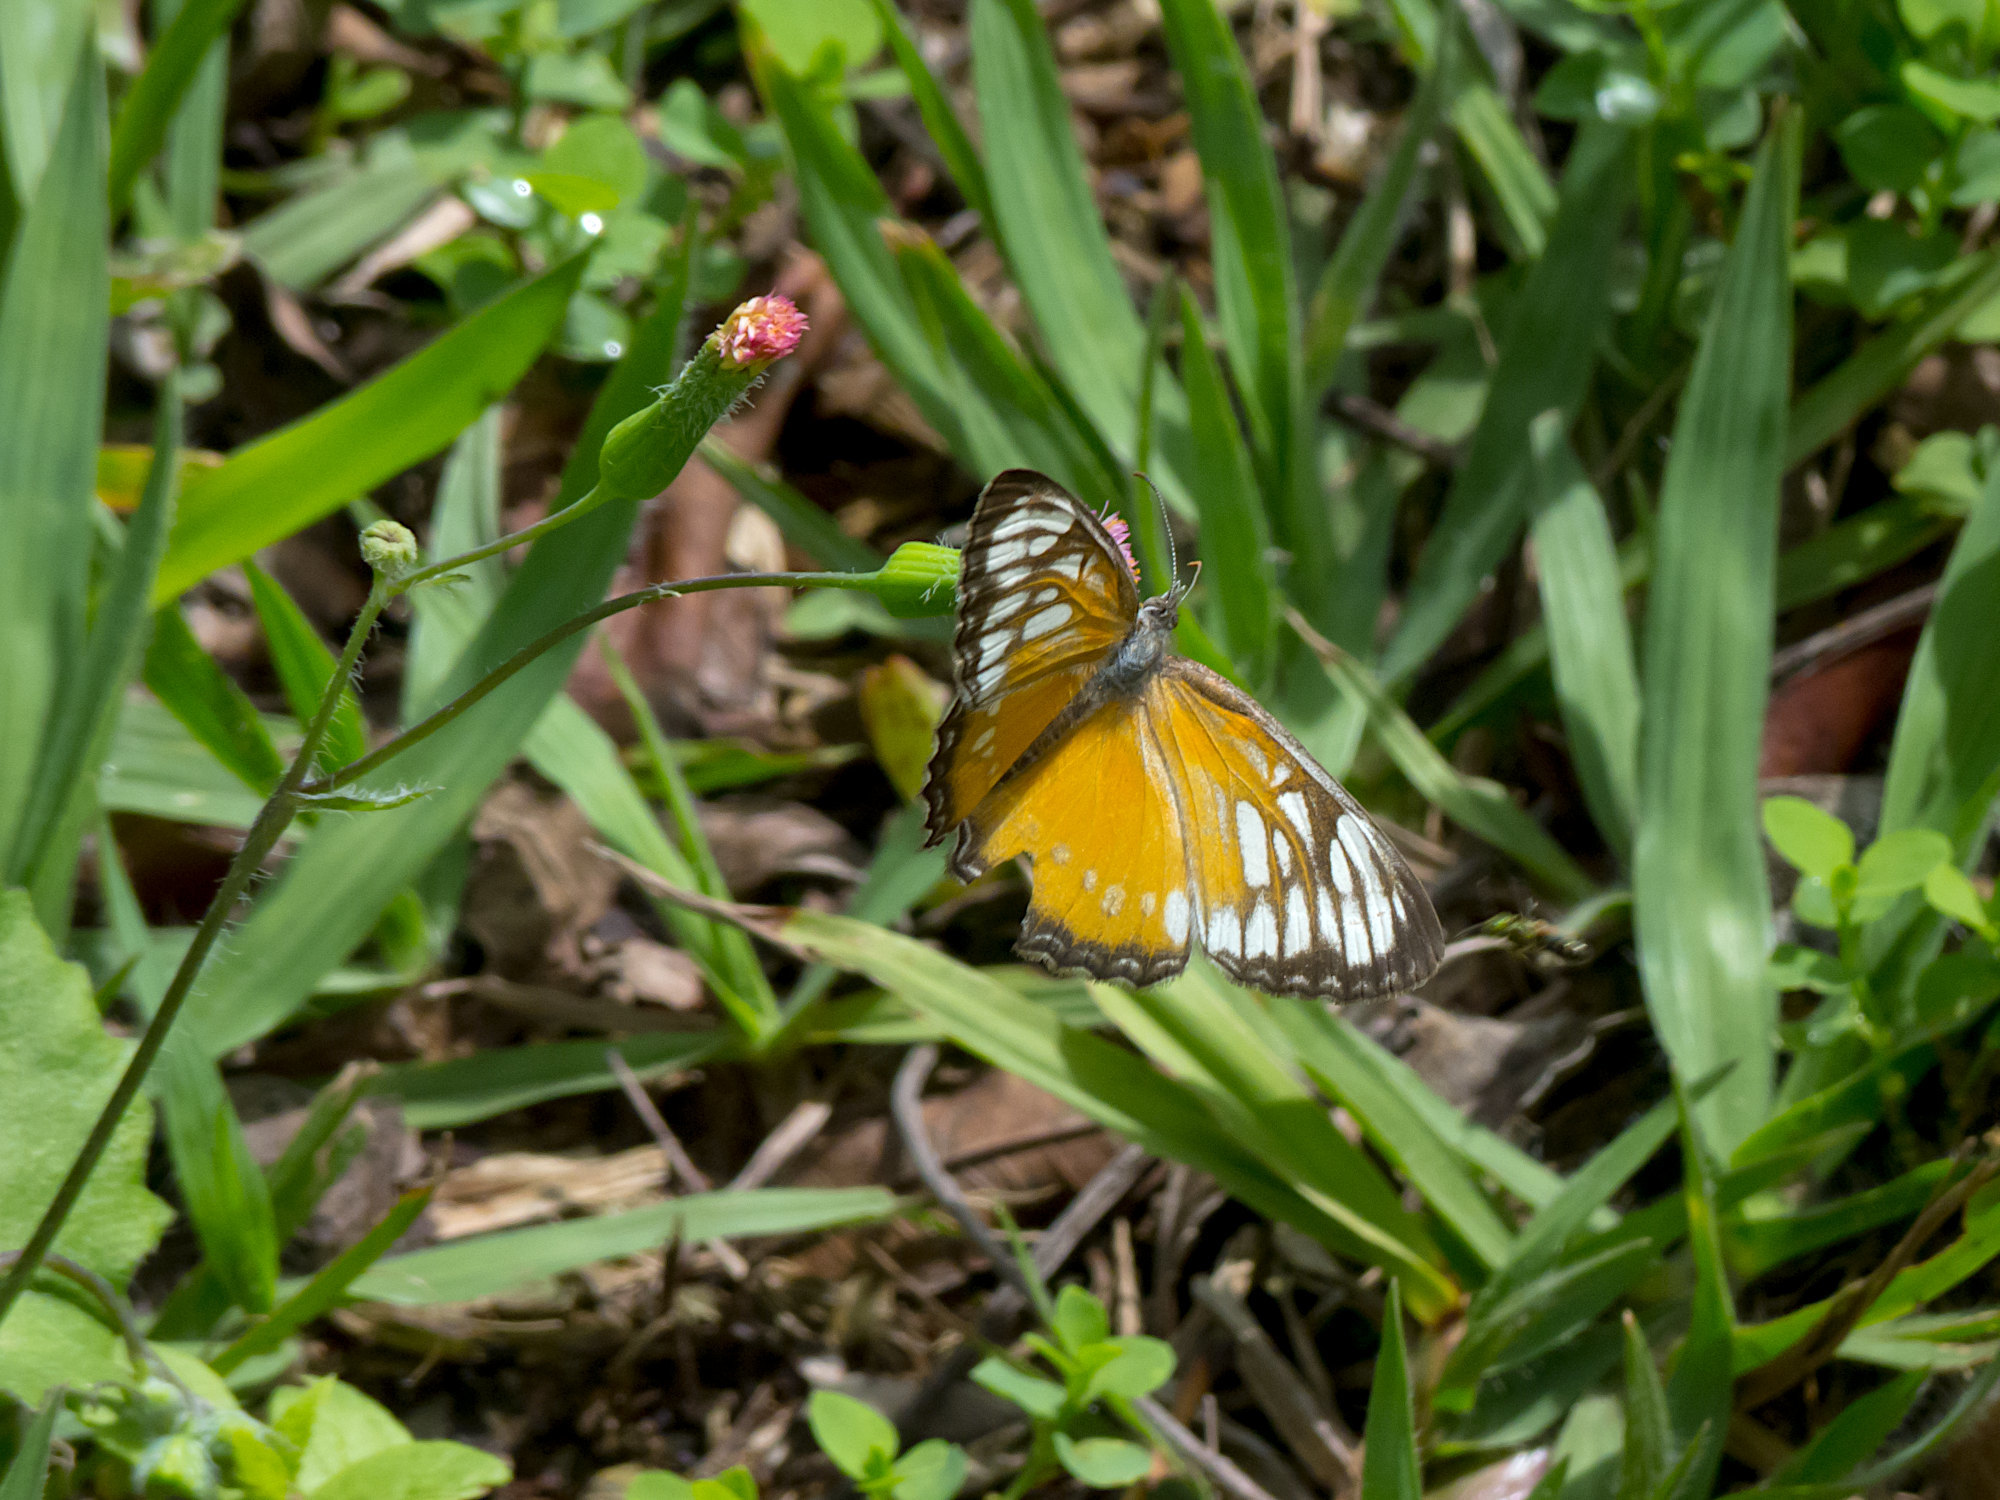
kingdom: Animalia
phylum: Arthropoda
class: Insecta
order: Lepidoptera
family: Nymphalidae
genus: Mestra
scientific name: Mestra hersilia
